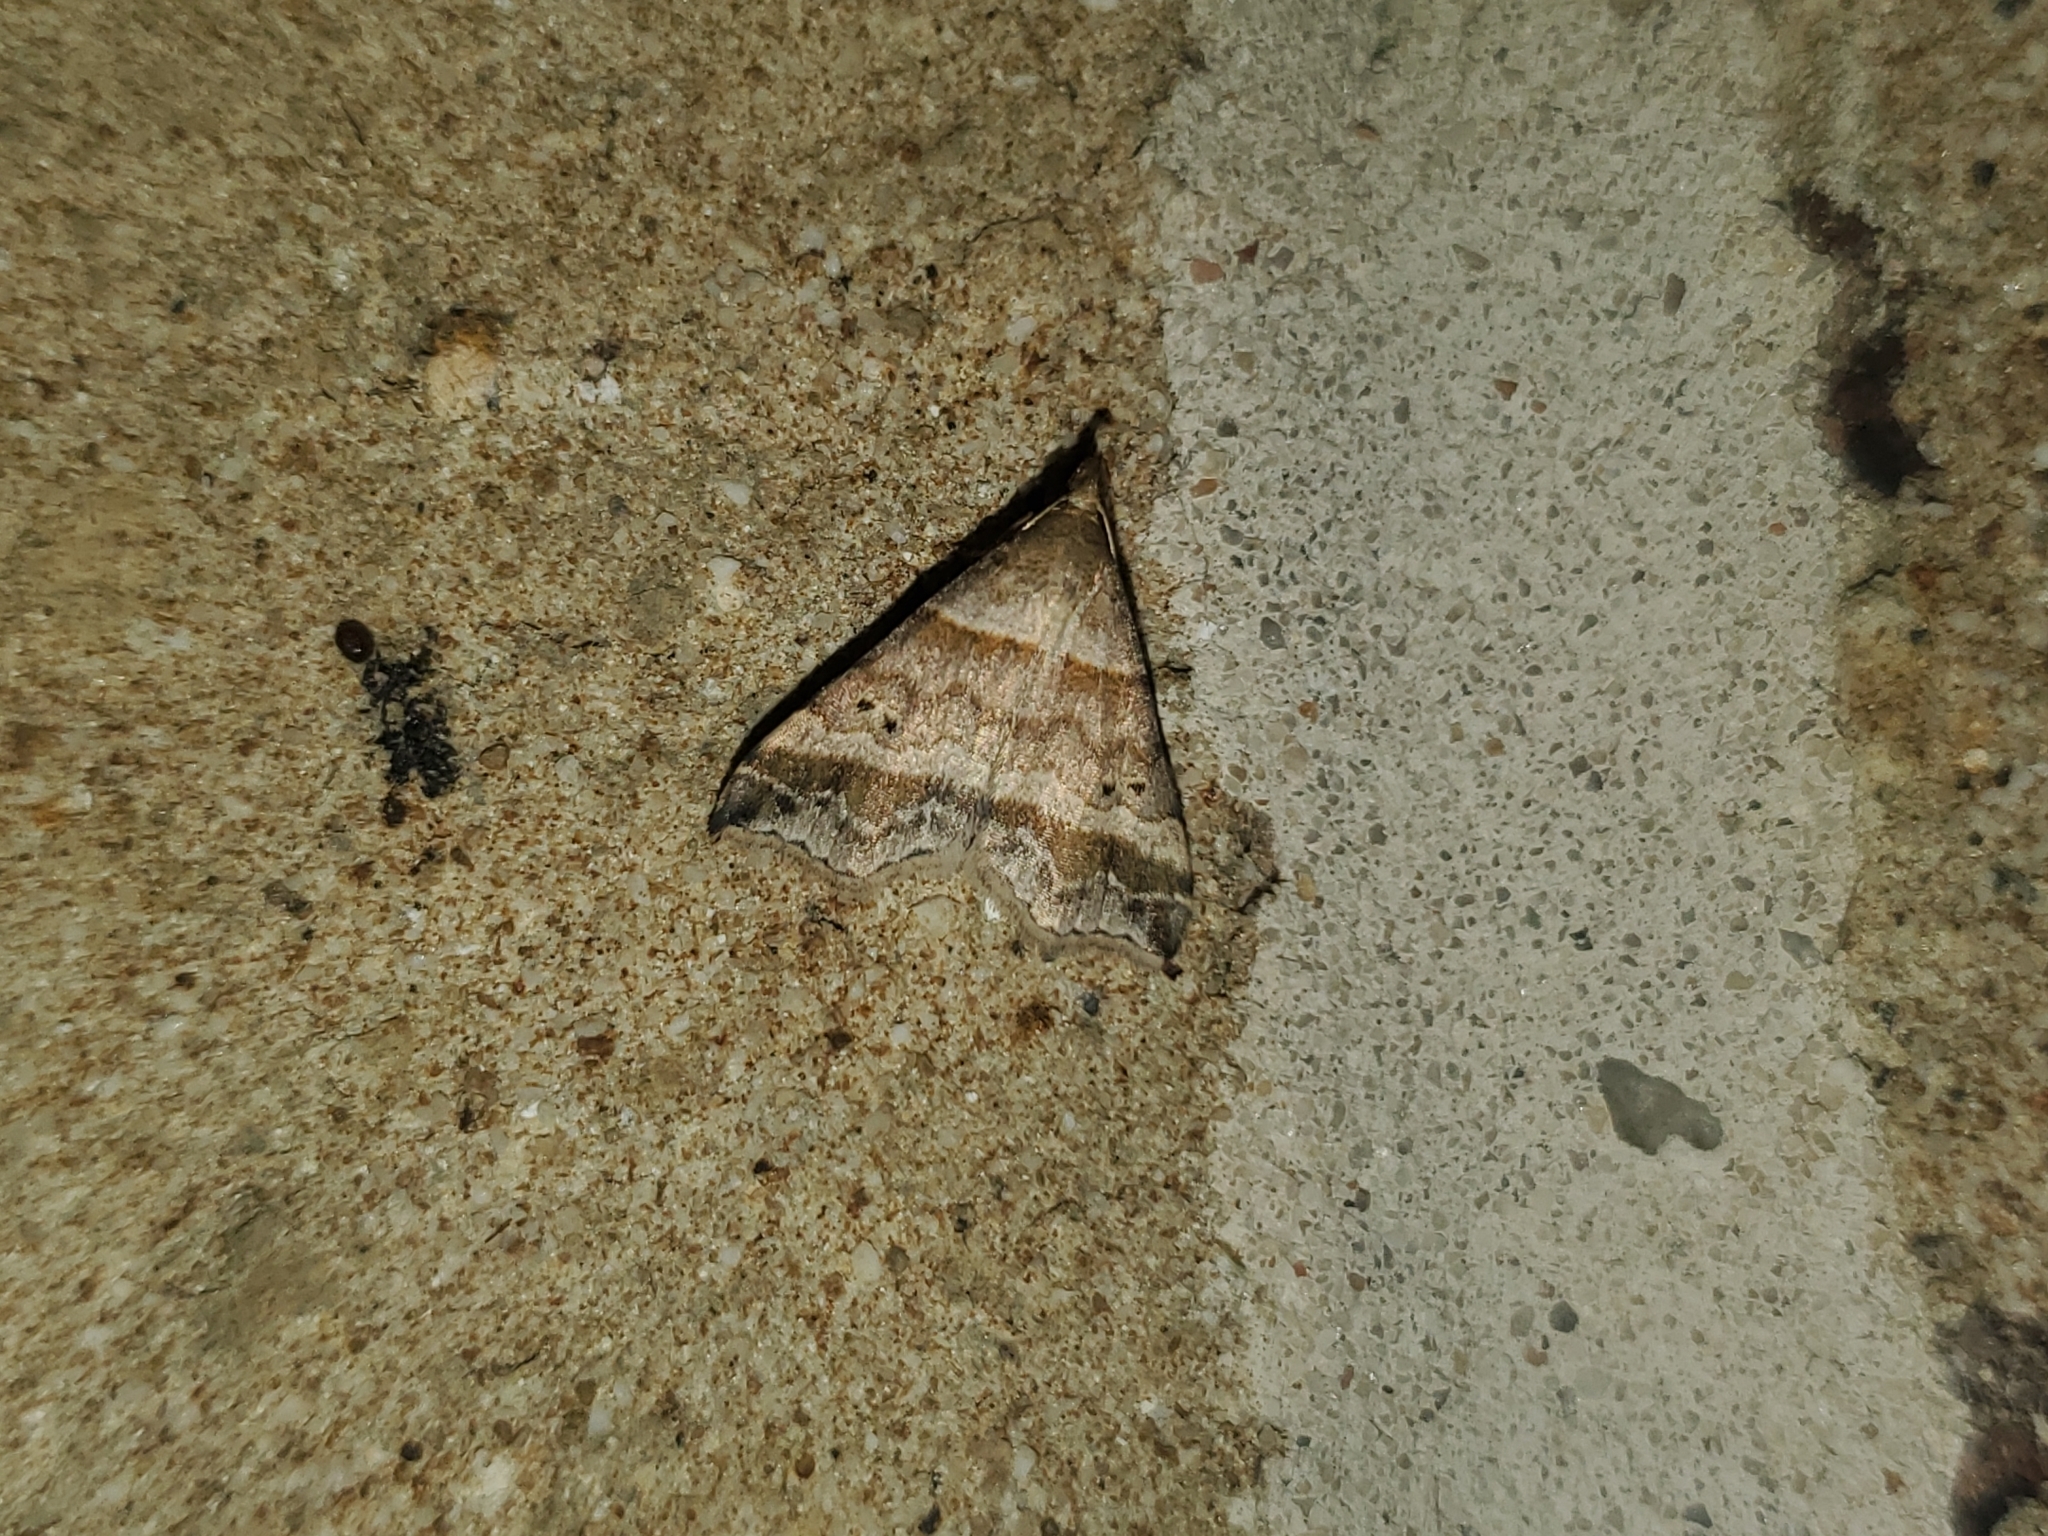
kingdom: Animalia
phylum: Arthropoda
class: Insecta
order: Lepidoptera
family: Erebidae
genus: Phaeolita
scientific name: Phaeolita pyramusalis
